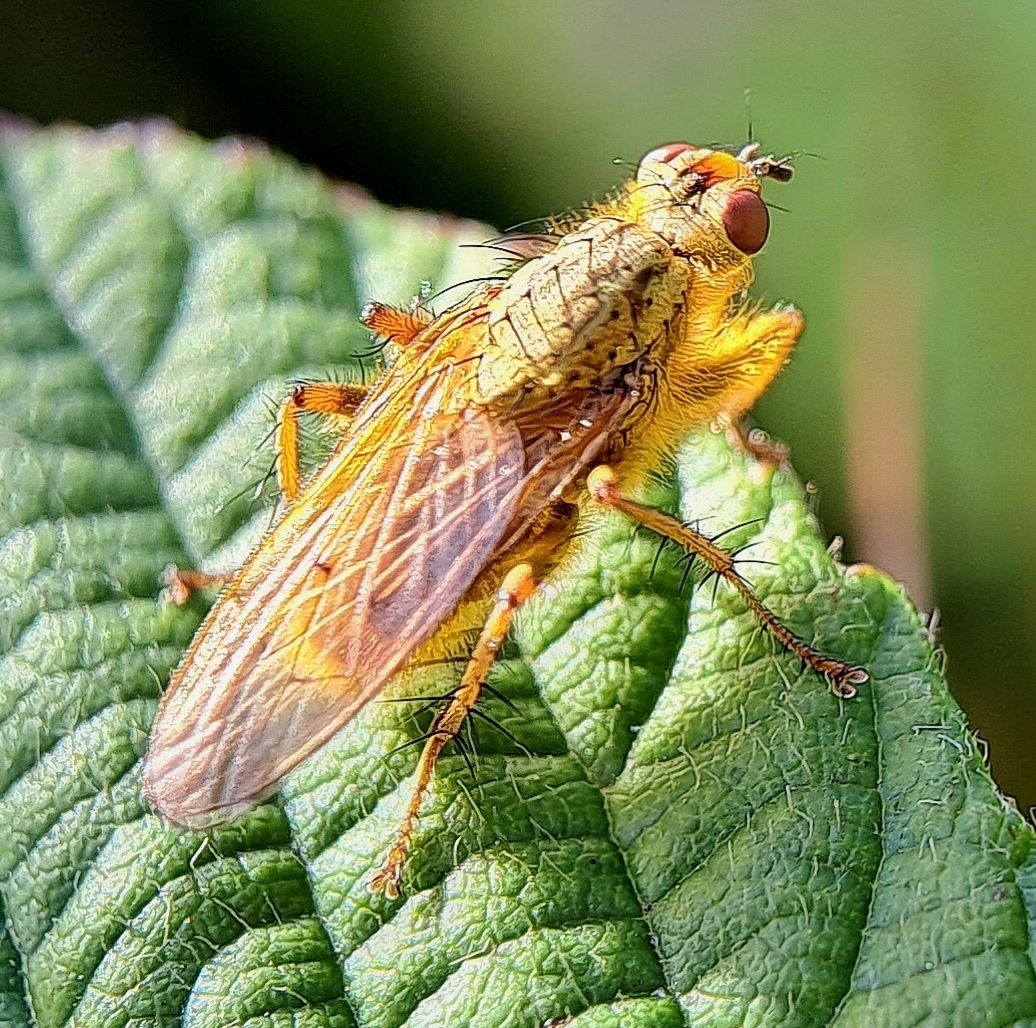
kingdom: Animalia
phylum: Arthropoda
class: Insecta
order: Diptera
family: Scathophagidae
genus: Scathophaga
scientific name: Scathophaga stercoraria
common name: Yellow dung fly
